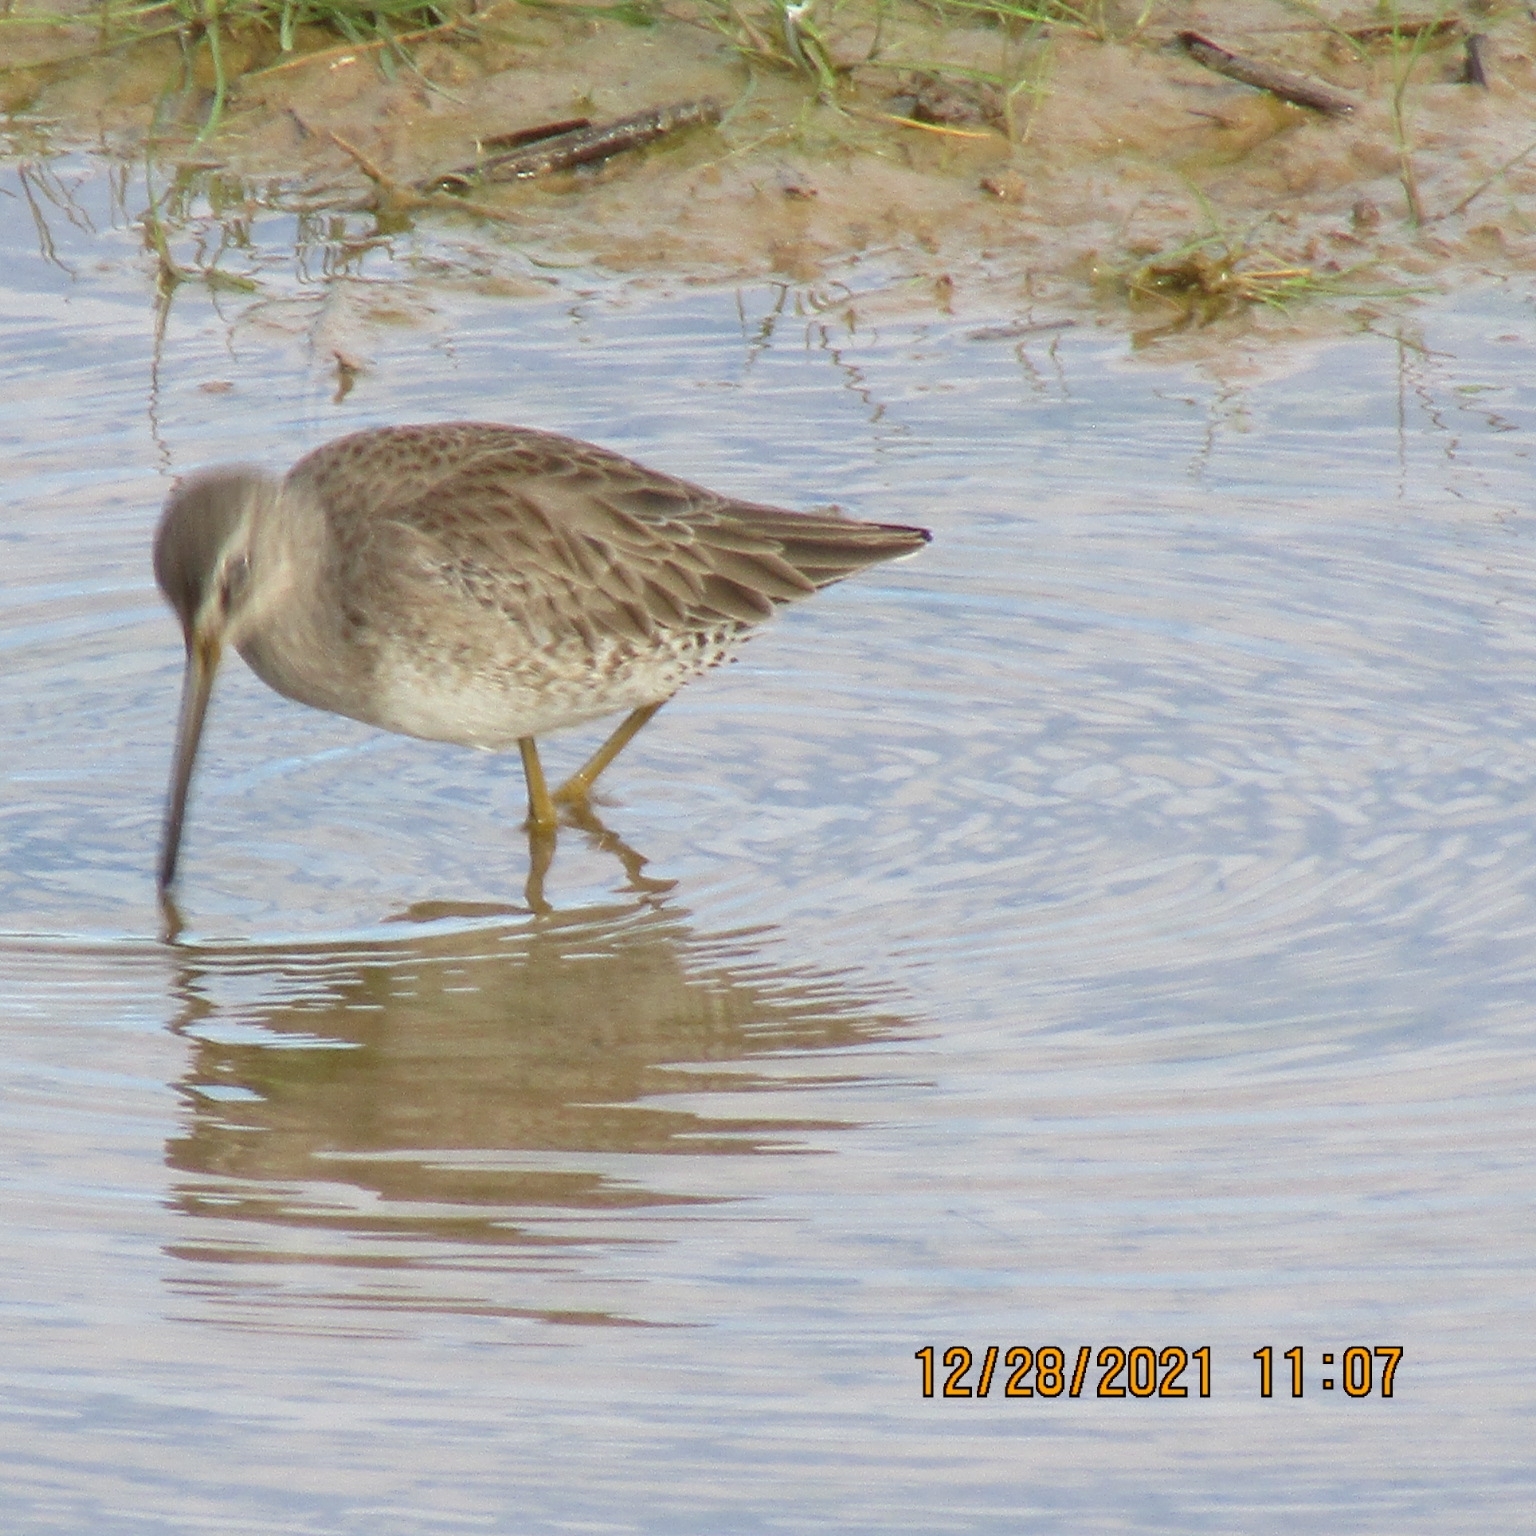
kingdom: Animalia
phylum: Chordata
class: Aves
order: Charadriiformes
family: Scolopacidae
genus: Limnodromus
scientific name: Limnodromus scolopaceus
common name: Long-billed dowitcher
